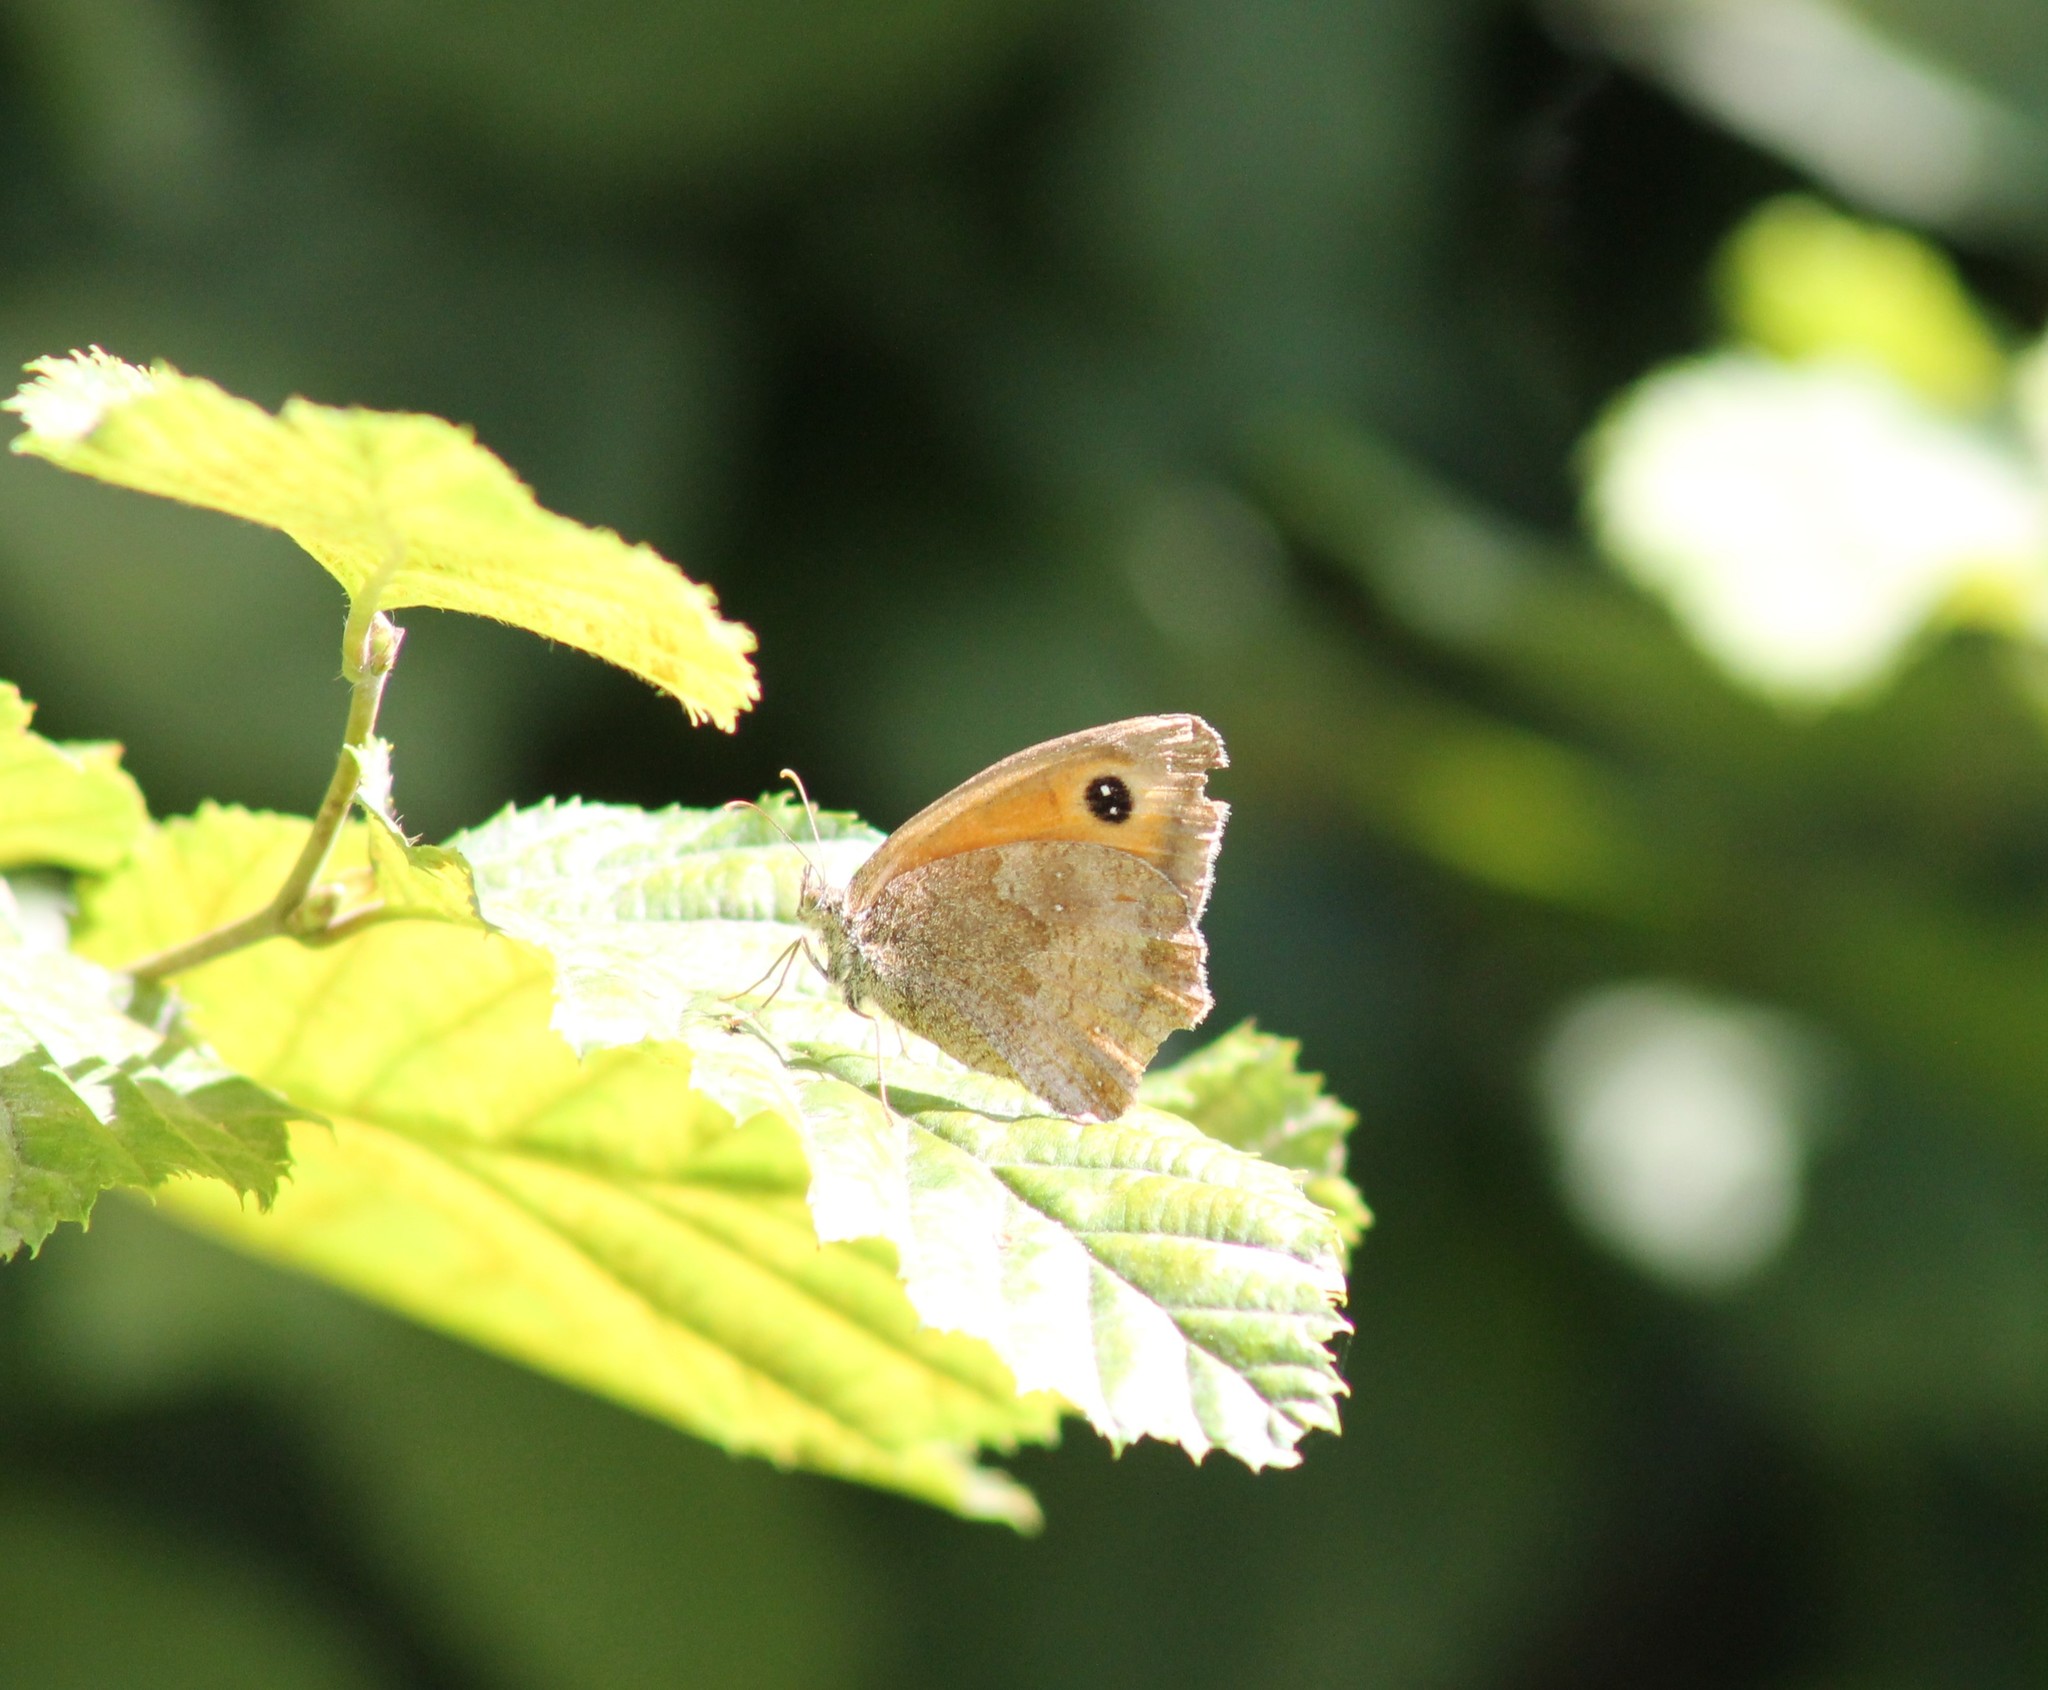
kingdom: Animalia
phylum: Arthropoda
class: Insecta
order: Lepidoptera
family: Nymphalidae
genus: Pyronia
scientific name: Pyronia tithonus
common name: Gatekeeper
